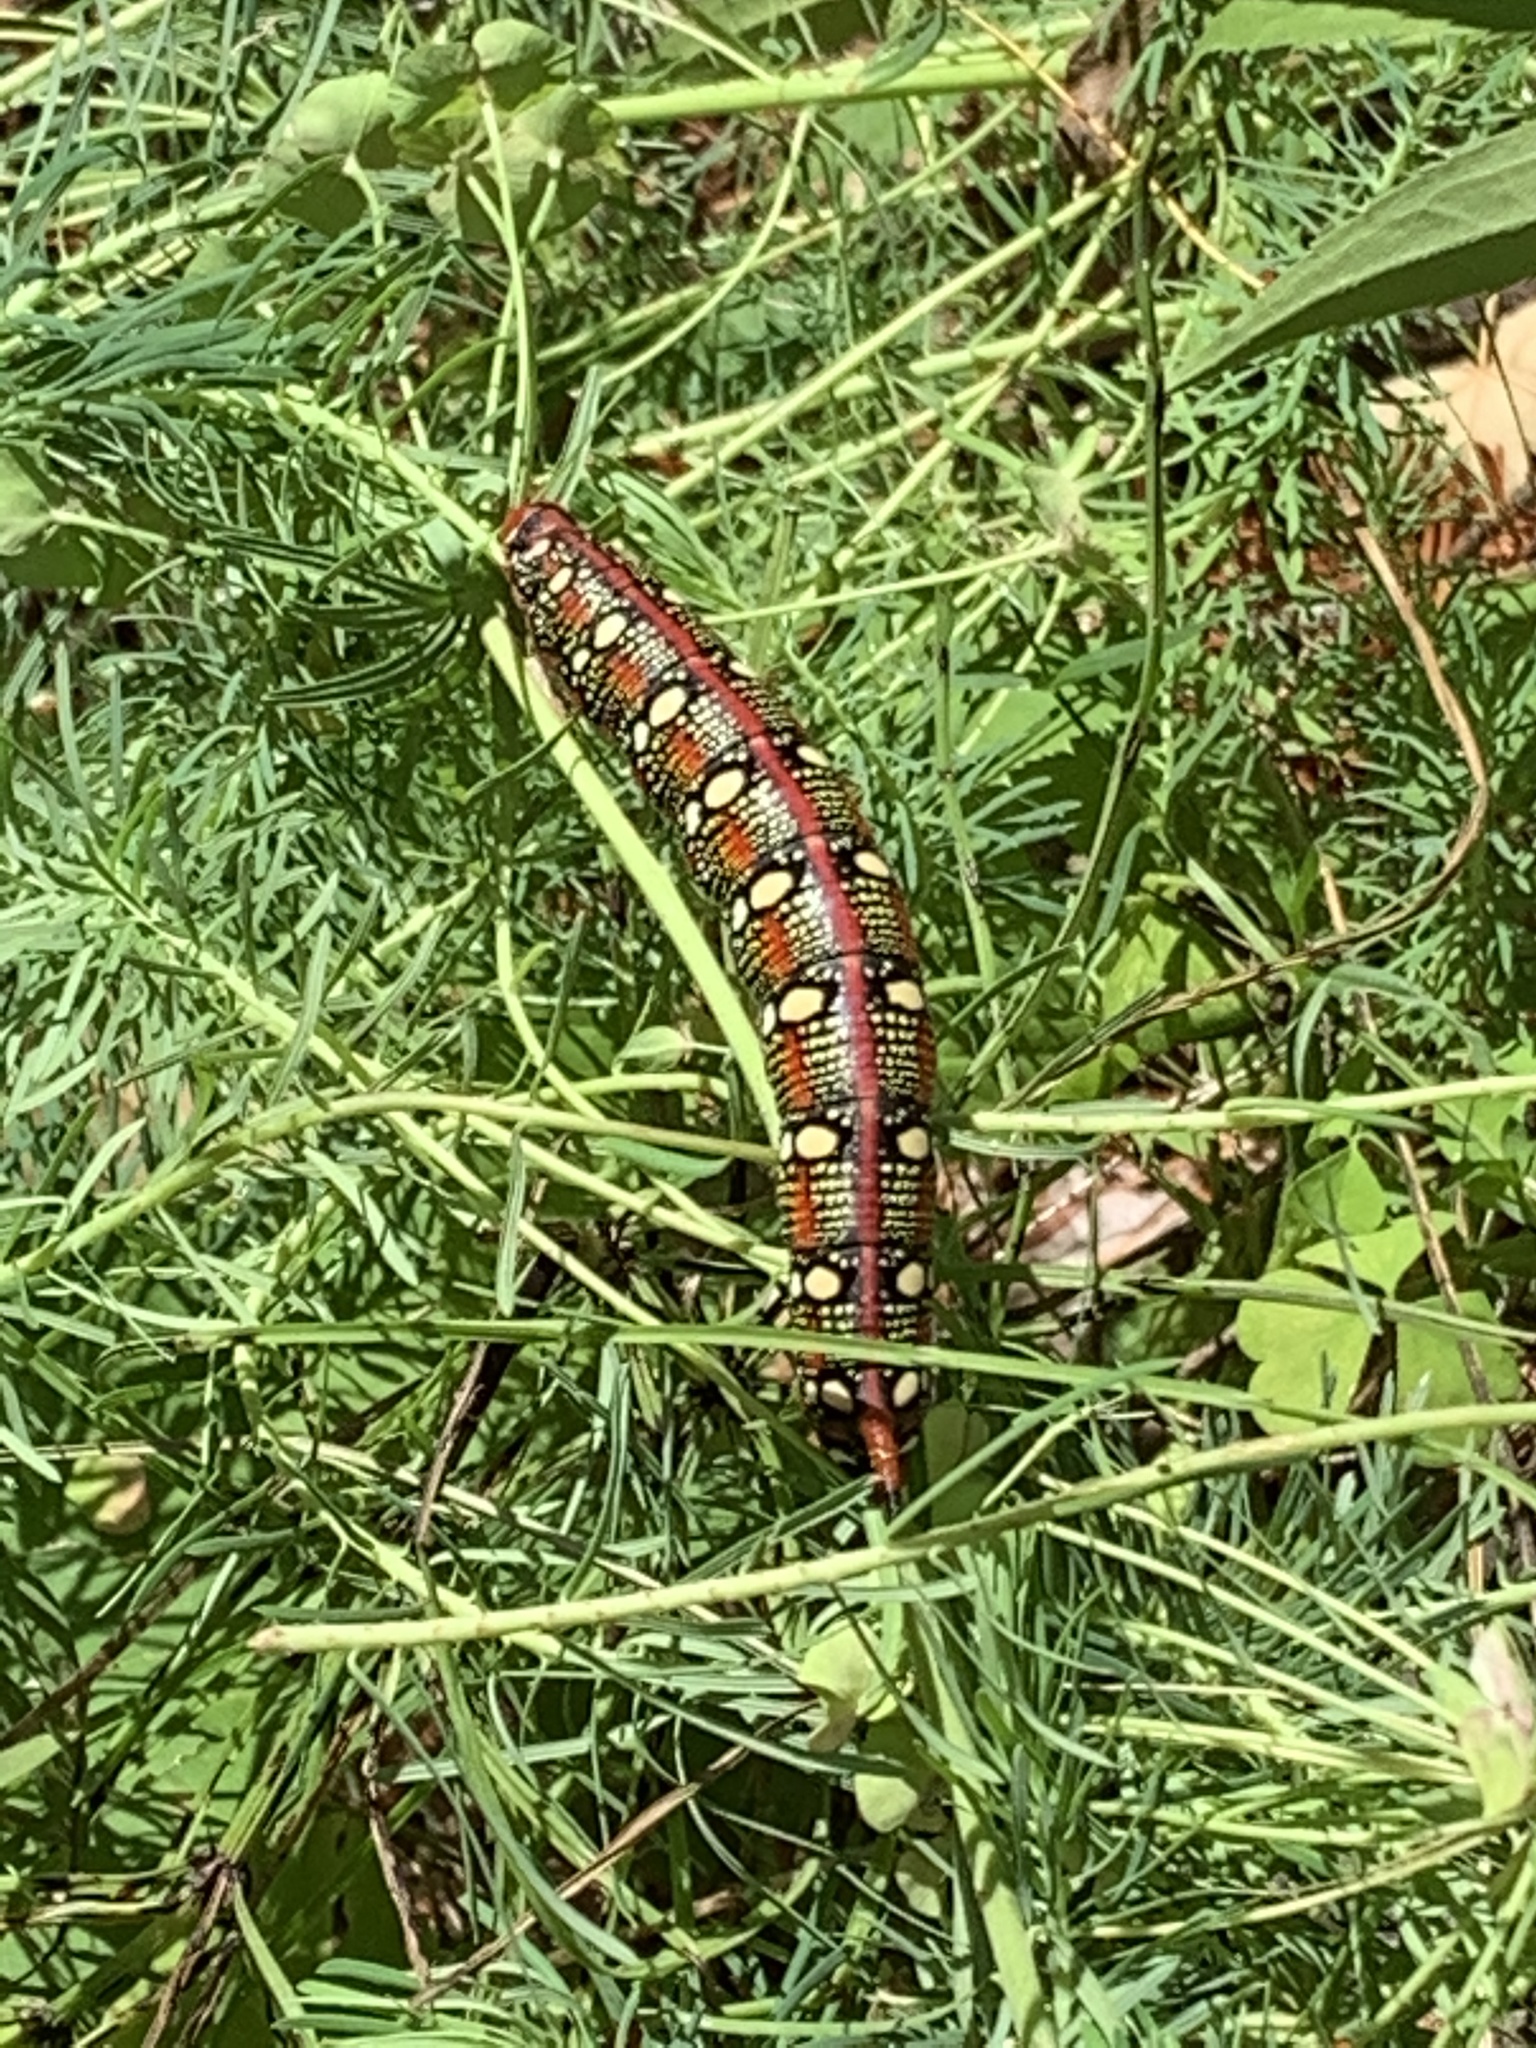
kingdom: Animalia
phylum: Arthropoda
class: Insecta
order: Lepidoptera
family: Sphingidae
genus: Hyles
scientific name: Hyles euphorbiae
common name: Spurge hawk-moth
